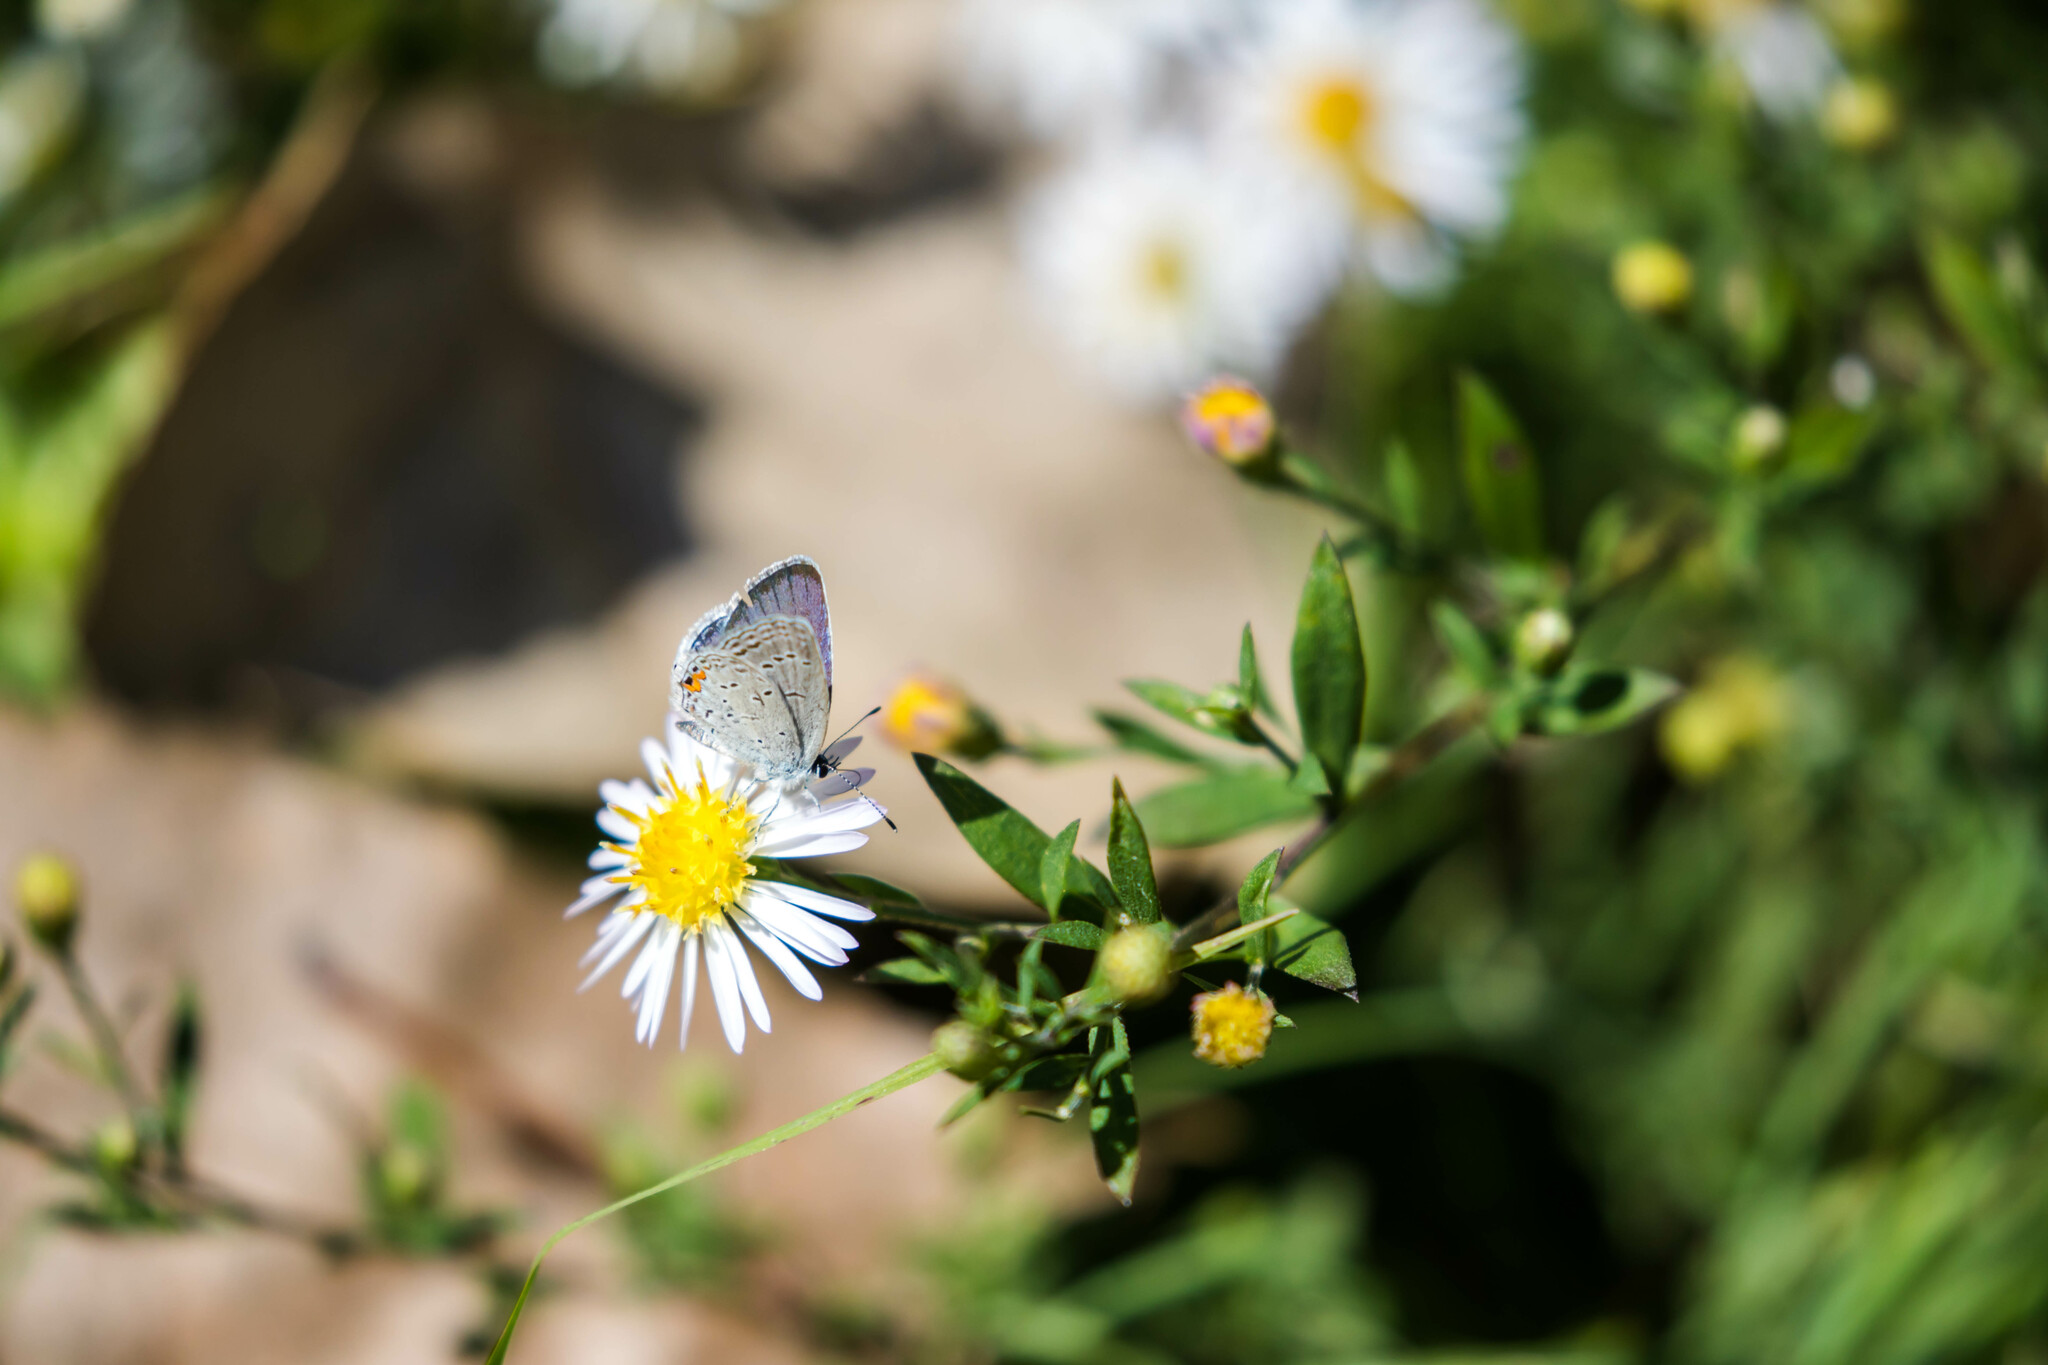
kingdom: Animalia
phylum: Arthropoda
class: Insecta
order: Lepidoptera
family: Lycaenidae
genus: Elkalyce
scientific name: Elkalyce comyntas
